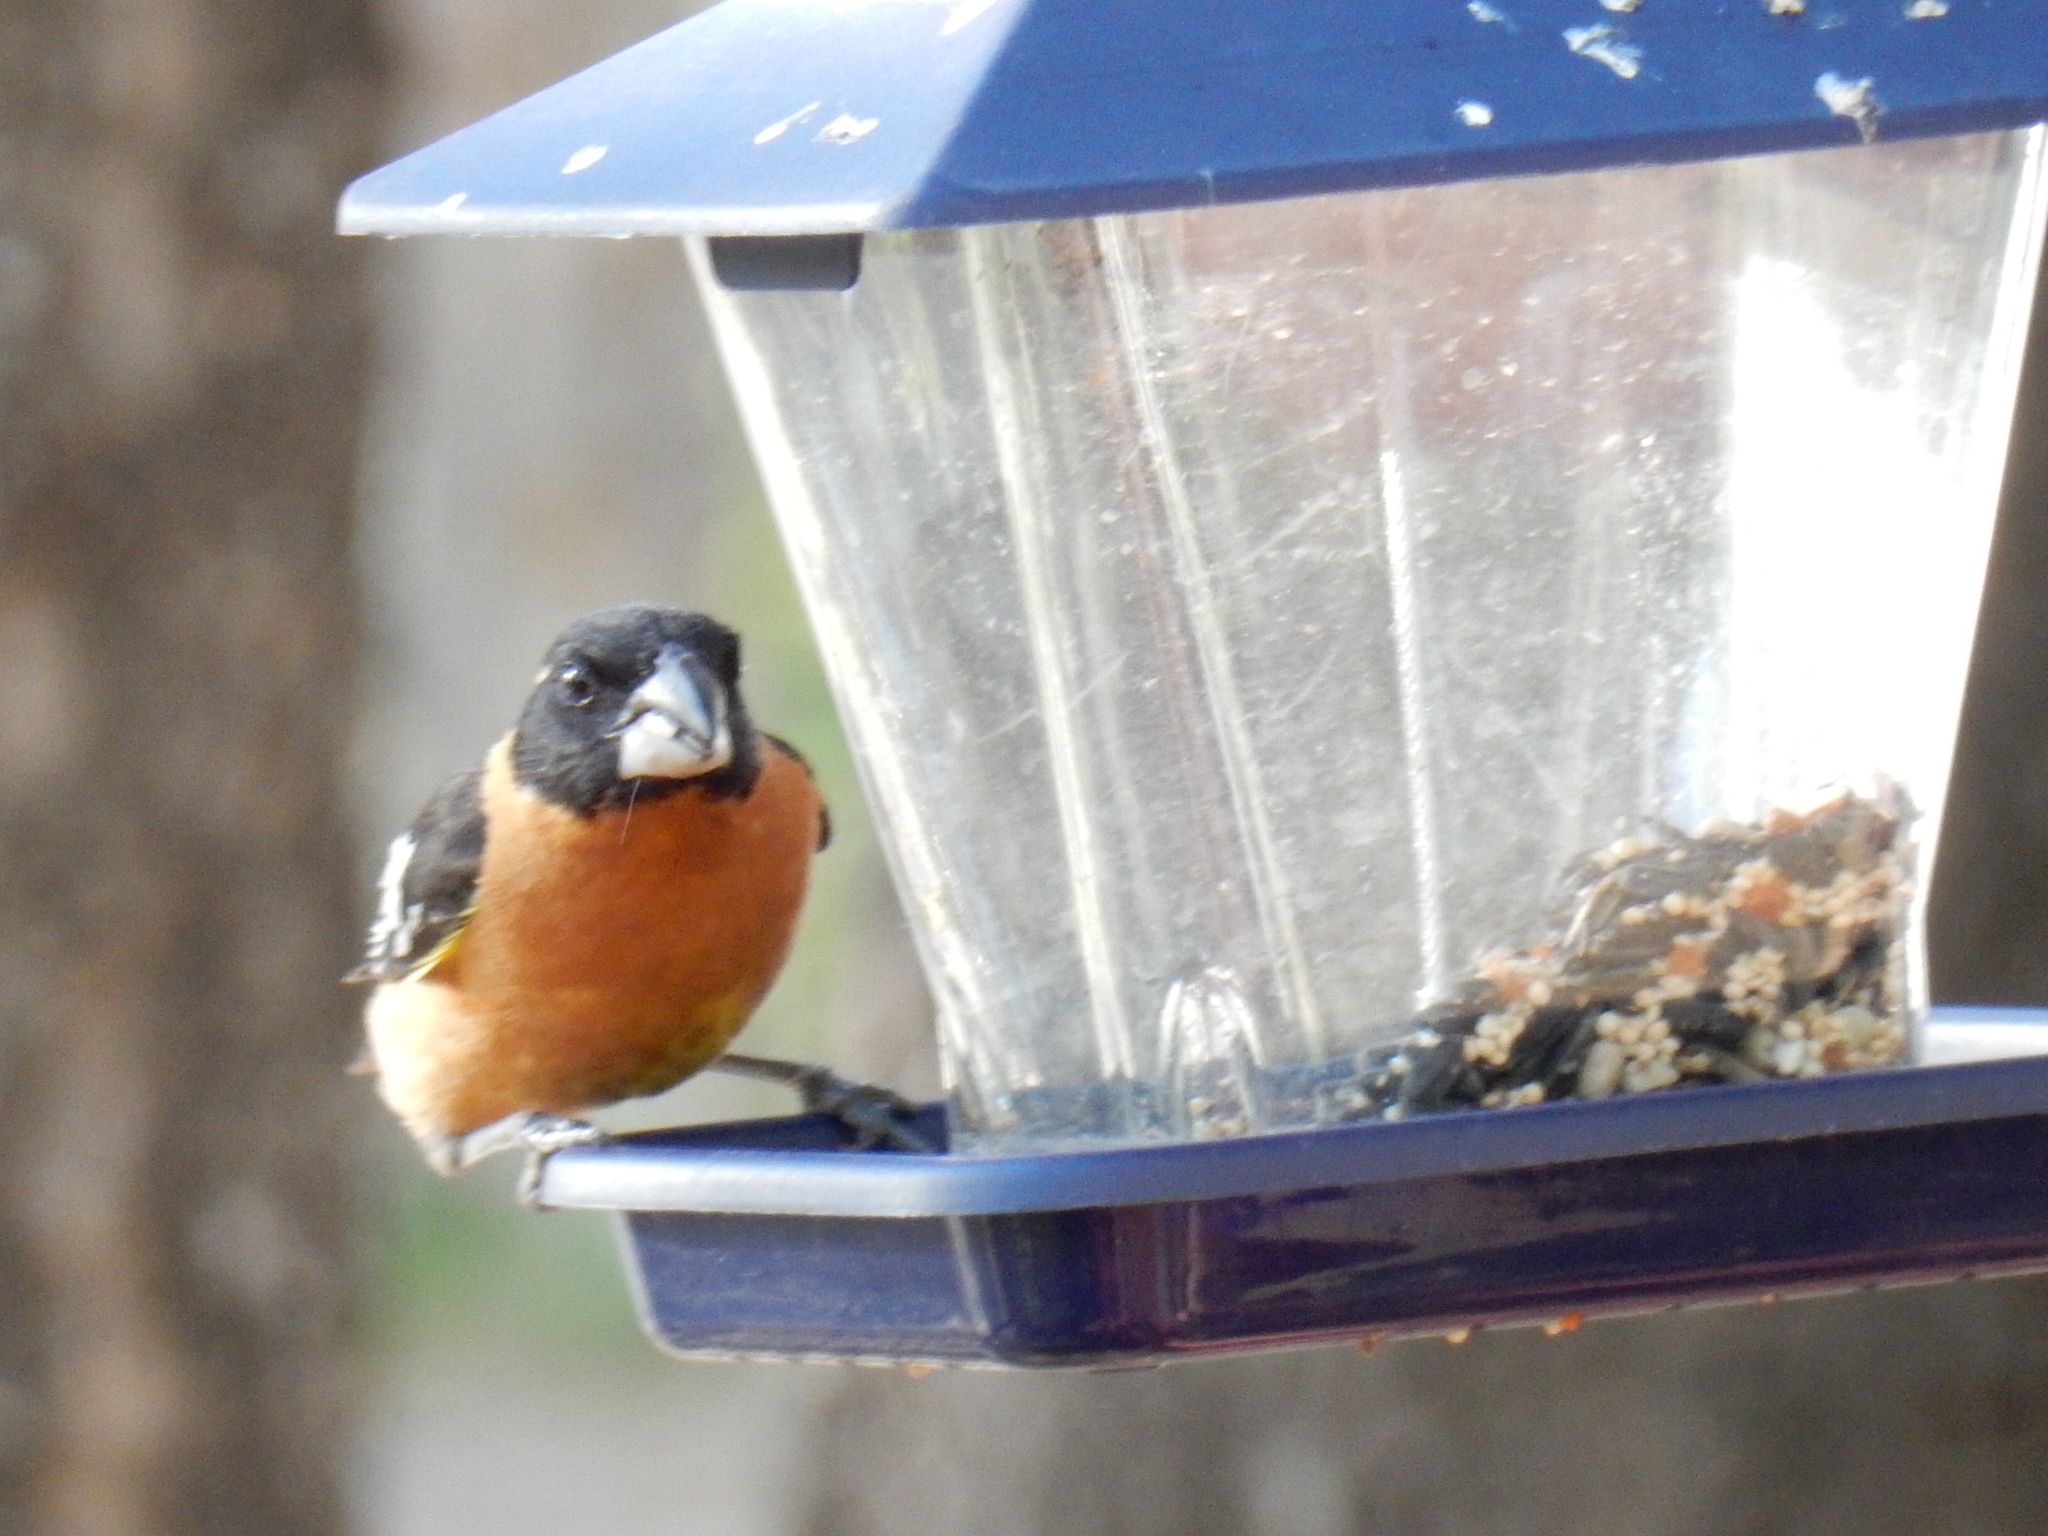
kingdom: Animalia
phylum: Chordata
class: Aves
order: Passeriformes
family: Cardinalidae
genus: Pheucticus
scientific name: Pheucticus melanocephalus
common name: Black-headed grosbeak
